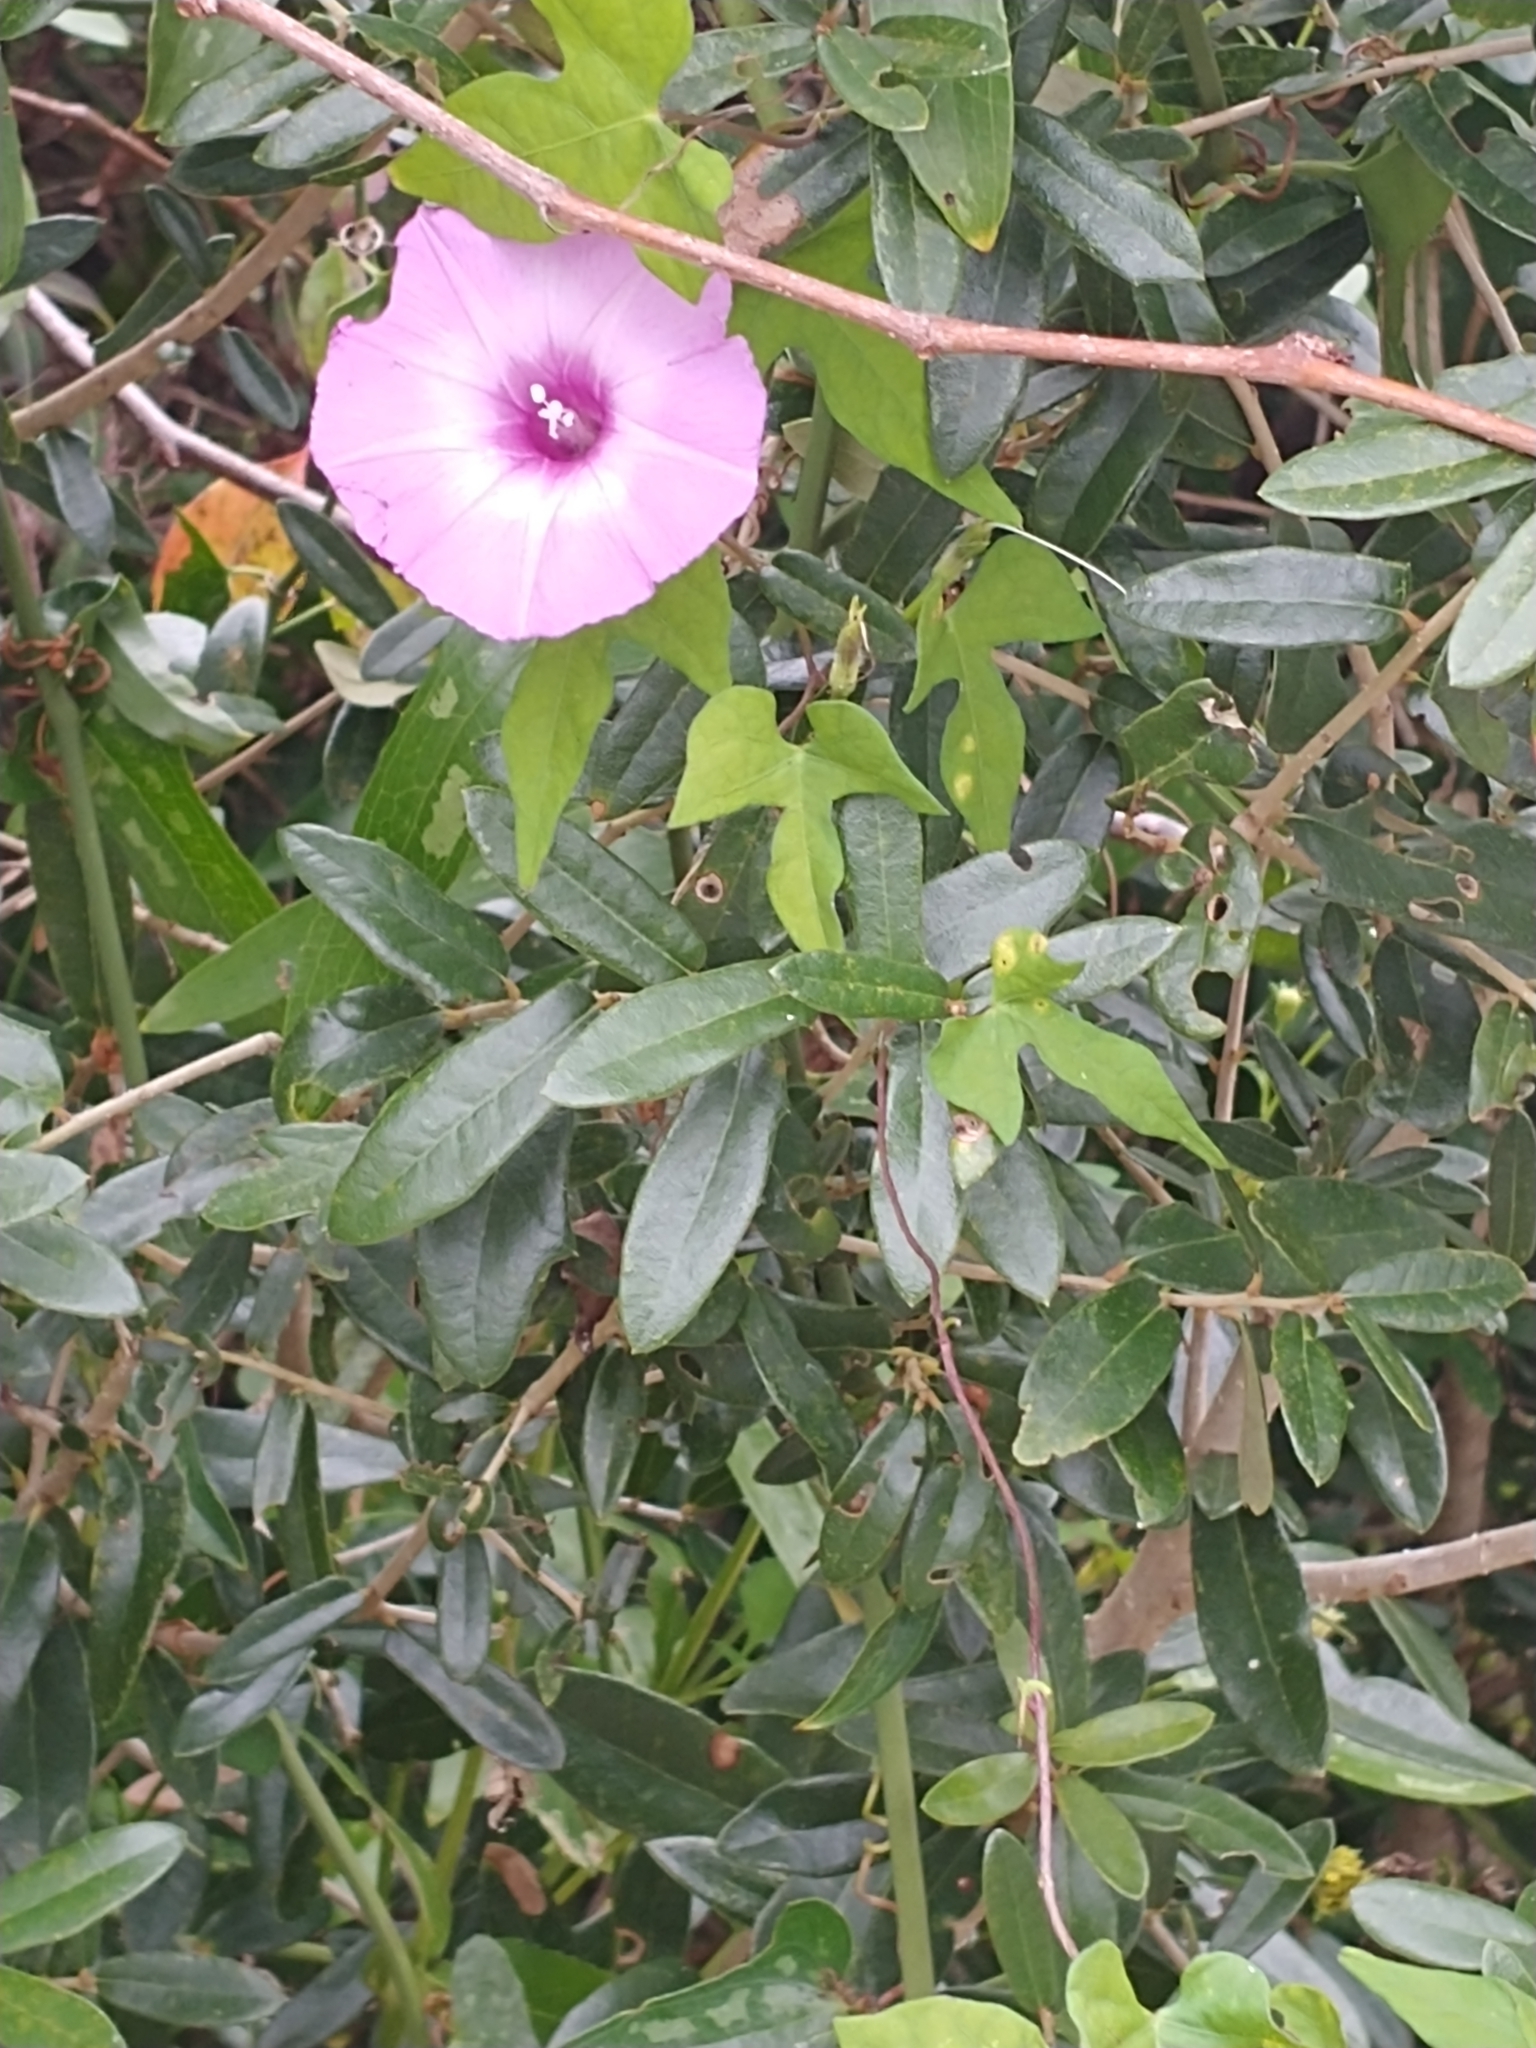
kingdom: Plantae
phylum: Tracheophyta
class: Magnoliopsida
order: Solanales
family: Convolvulaceae
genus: Ipomoea
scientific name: Ipomoea cordatotriloba
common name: Cotton morning glory
